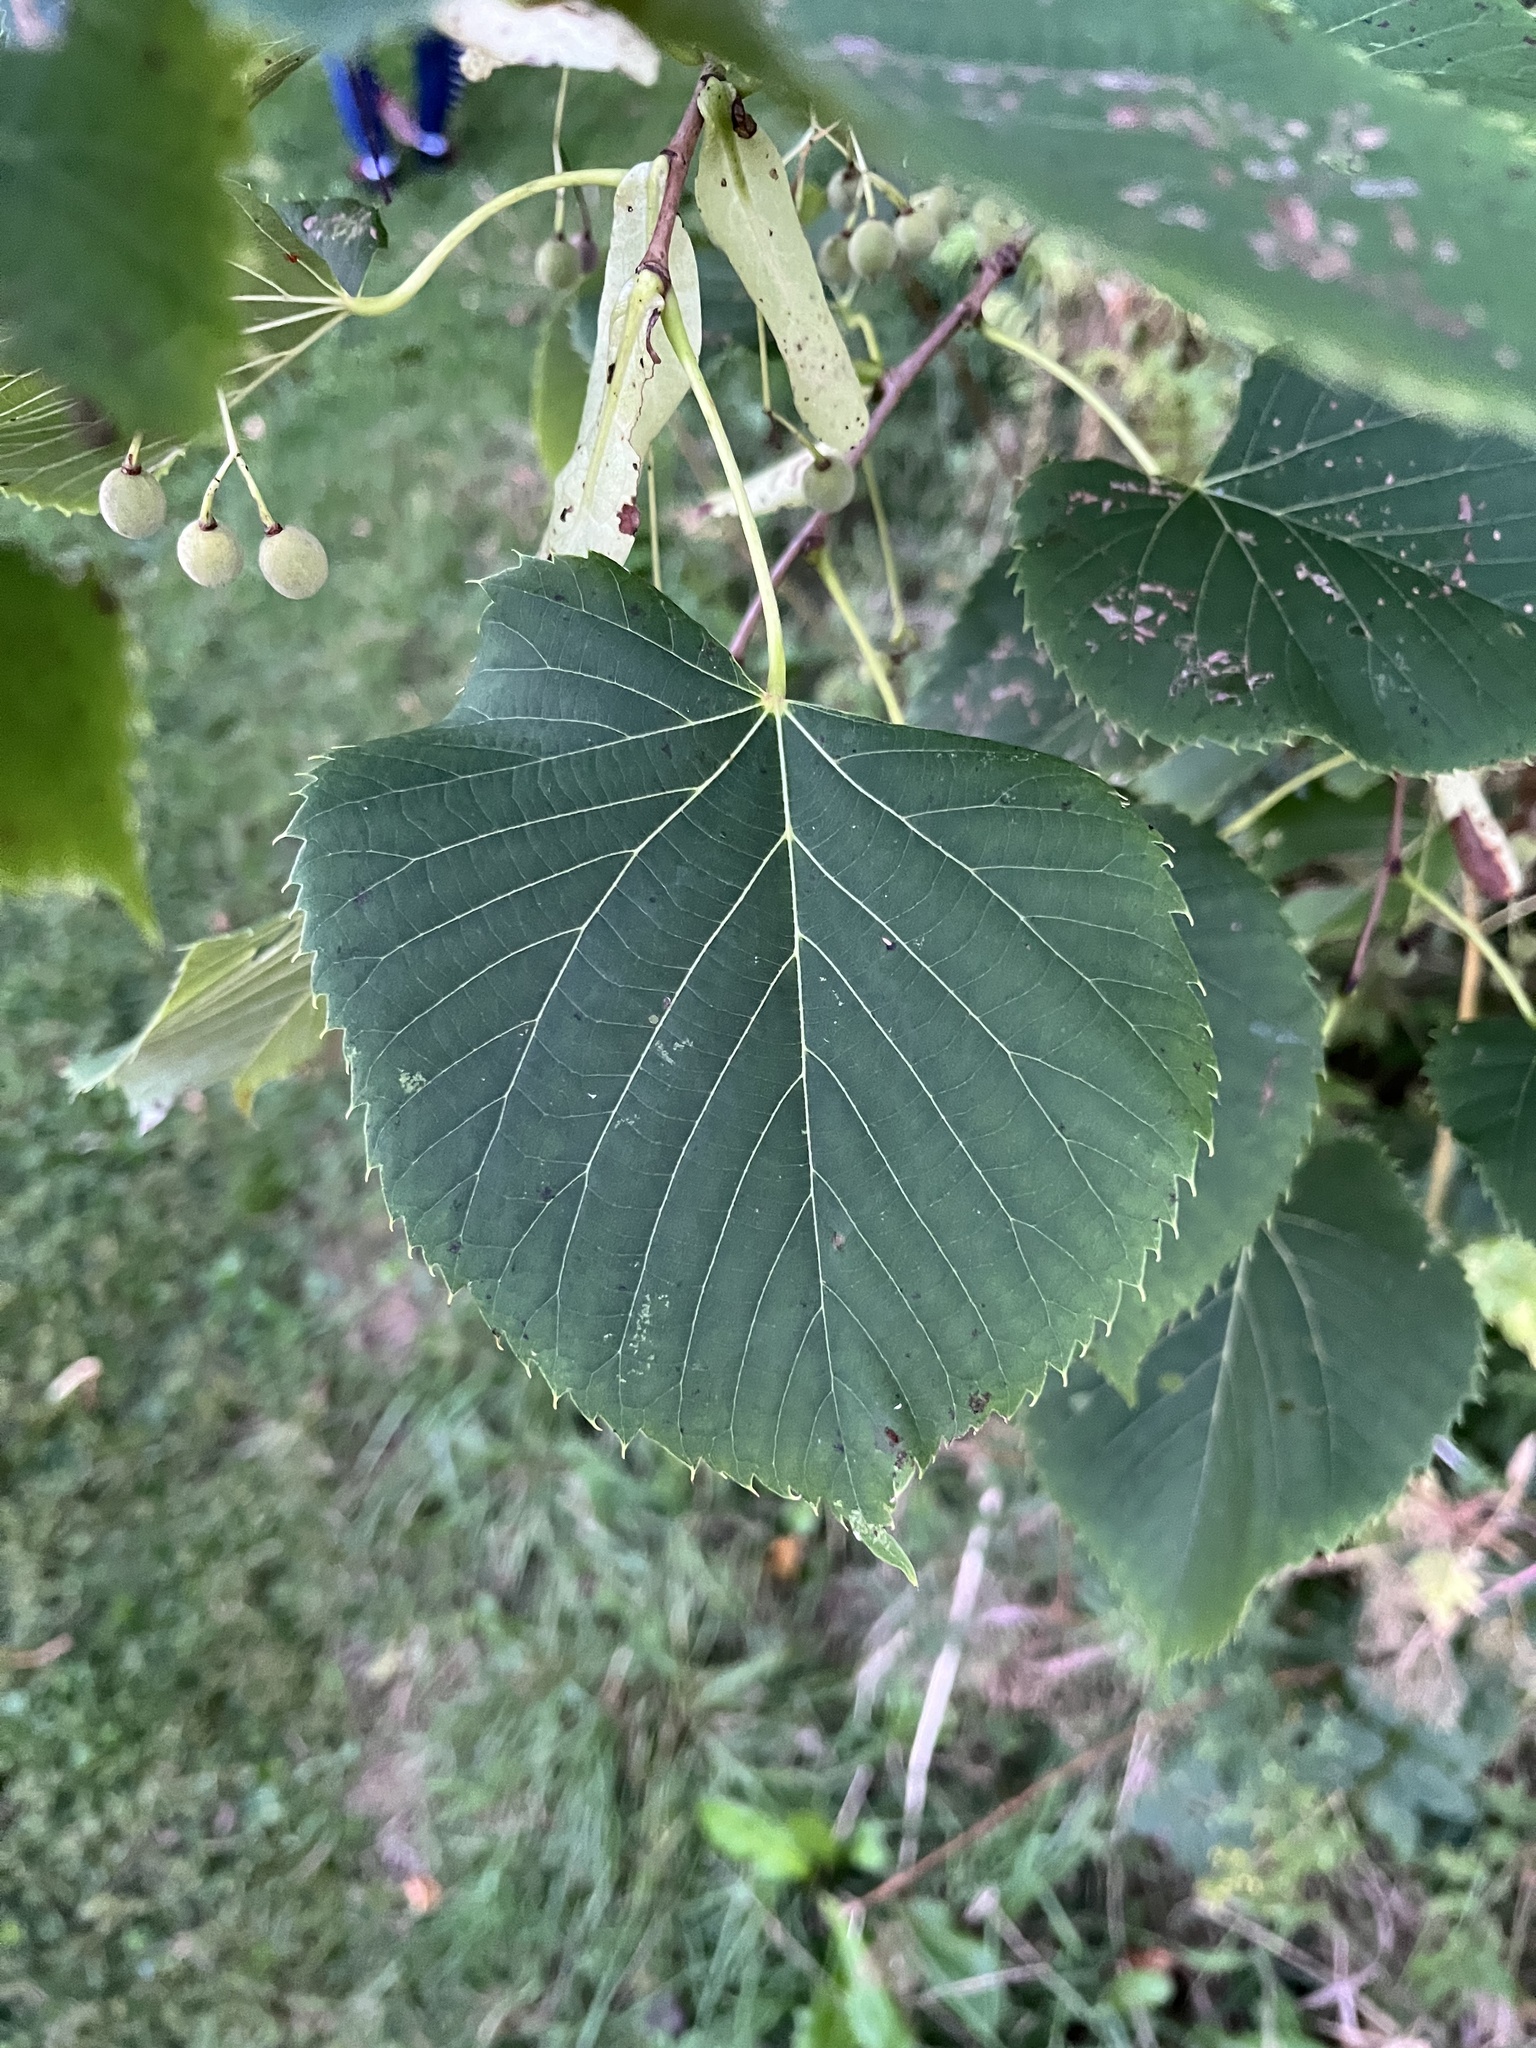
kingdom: Plantae
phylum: Tracheophyta
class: Magnoliopsida
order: Malvales
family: Malvaceae
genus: Tilia
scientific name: Tilia americana
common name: Basswood
